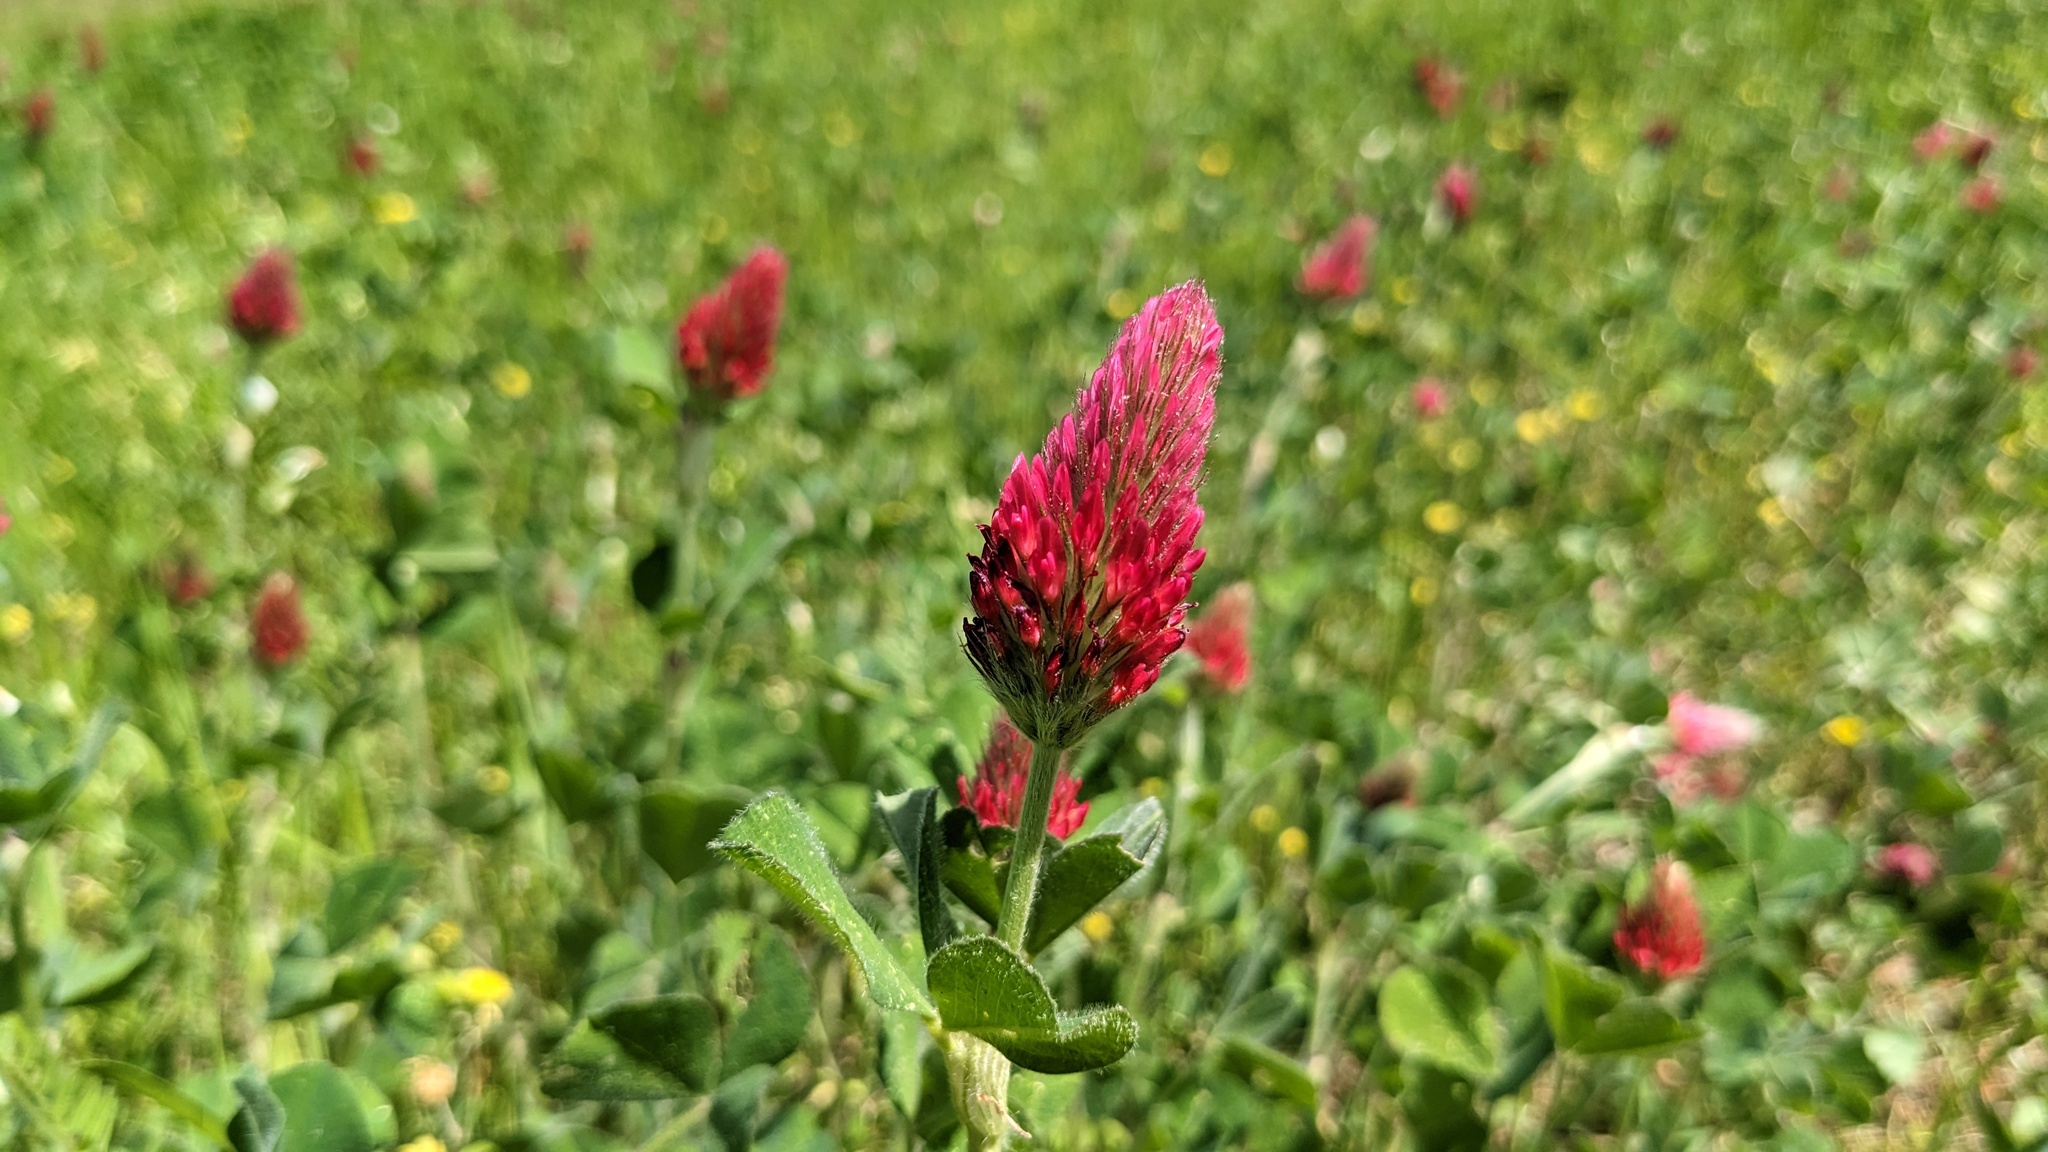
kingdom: Plantae
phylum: Tracheophyta
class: Magnoliopsida
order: Fabales
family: Fabaceae
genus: Trifolium
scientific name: Trifolium incarnatum
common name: Crimson clover
